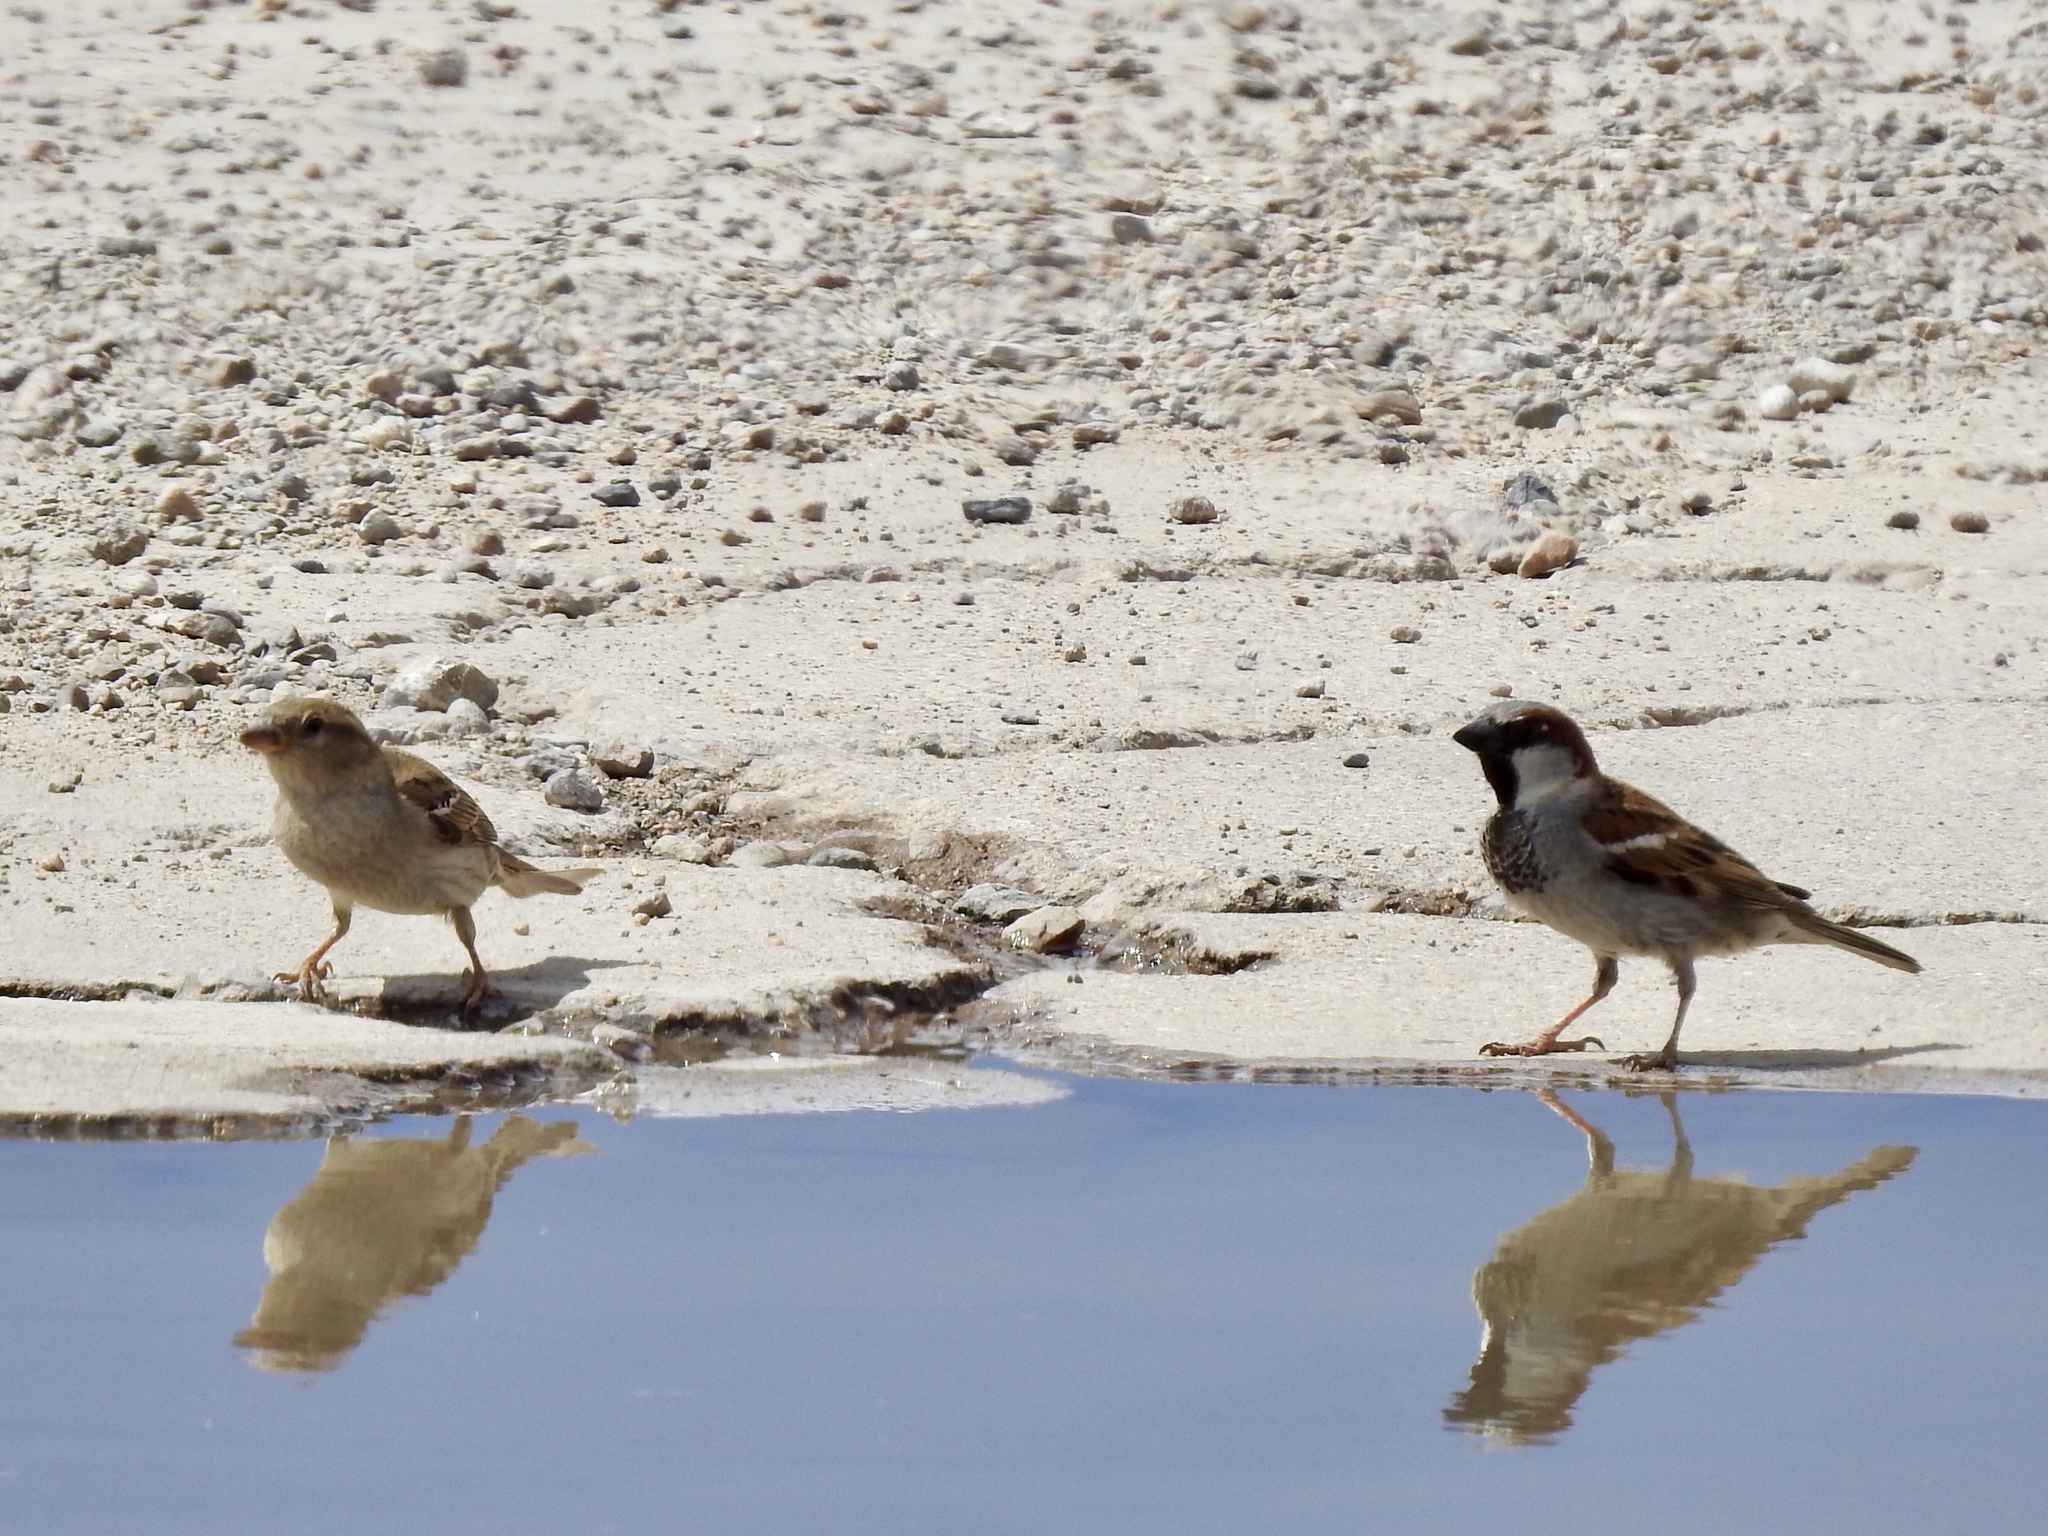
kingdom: Animalia
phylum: Chordata
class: Aves
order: Passeriformes
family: Passeridae
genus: Passer
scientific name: Passer domesticus
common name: House sparrow
